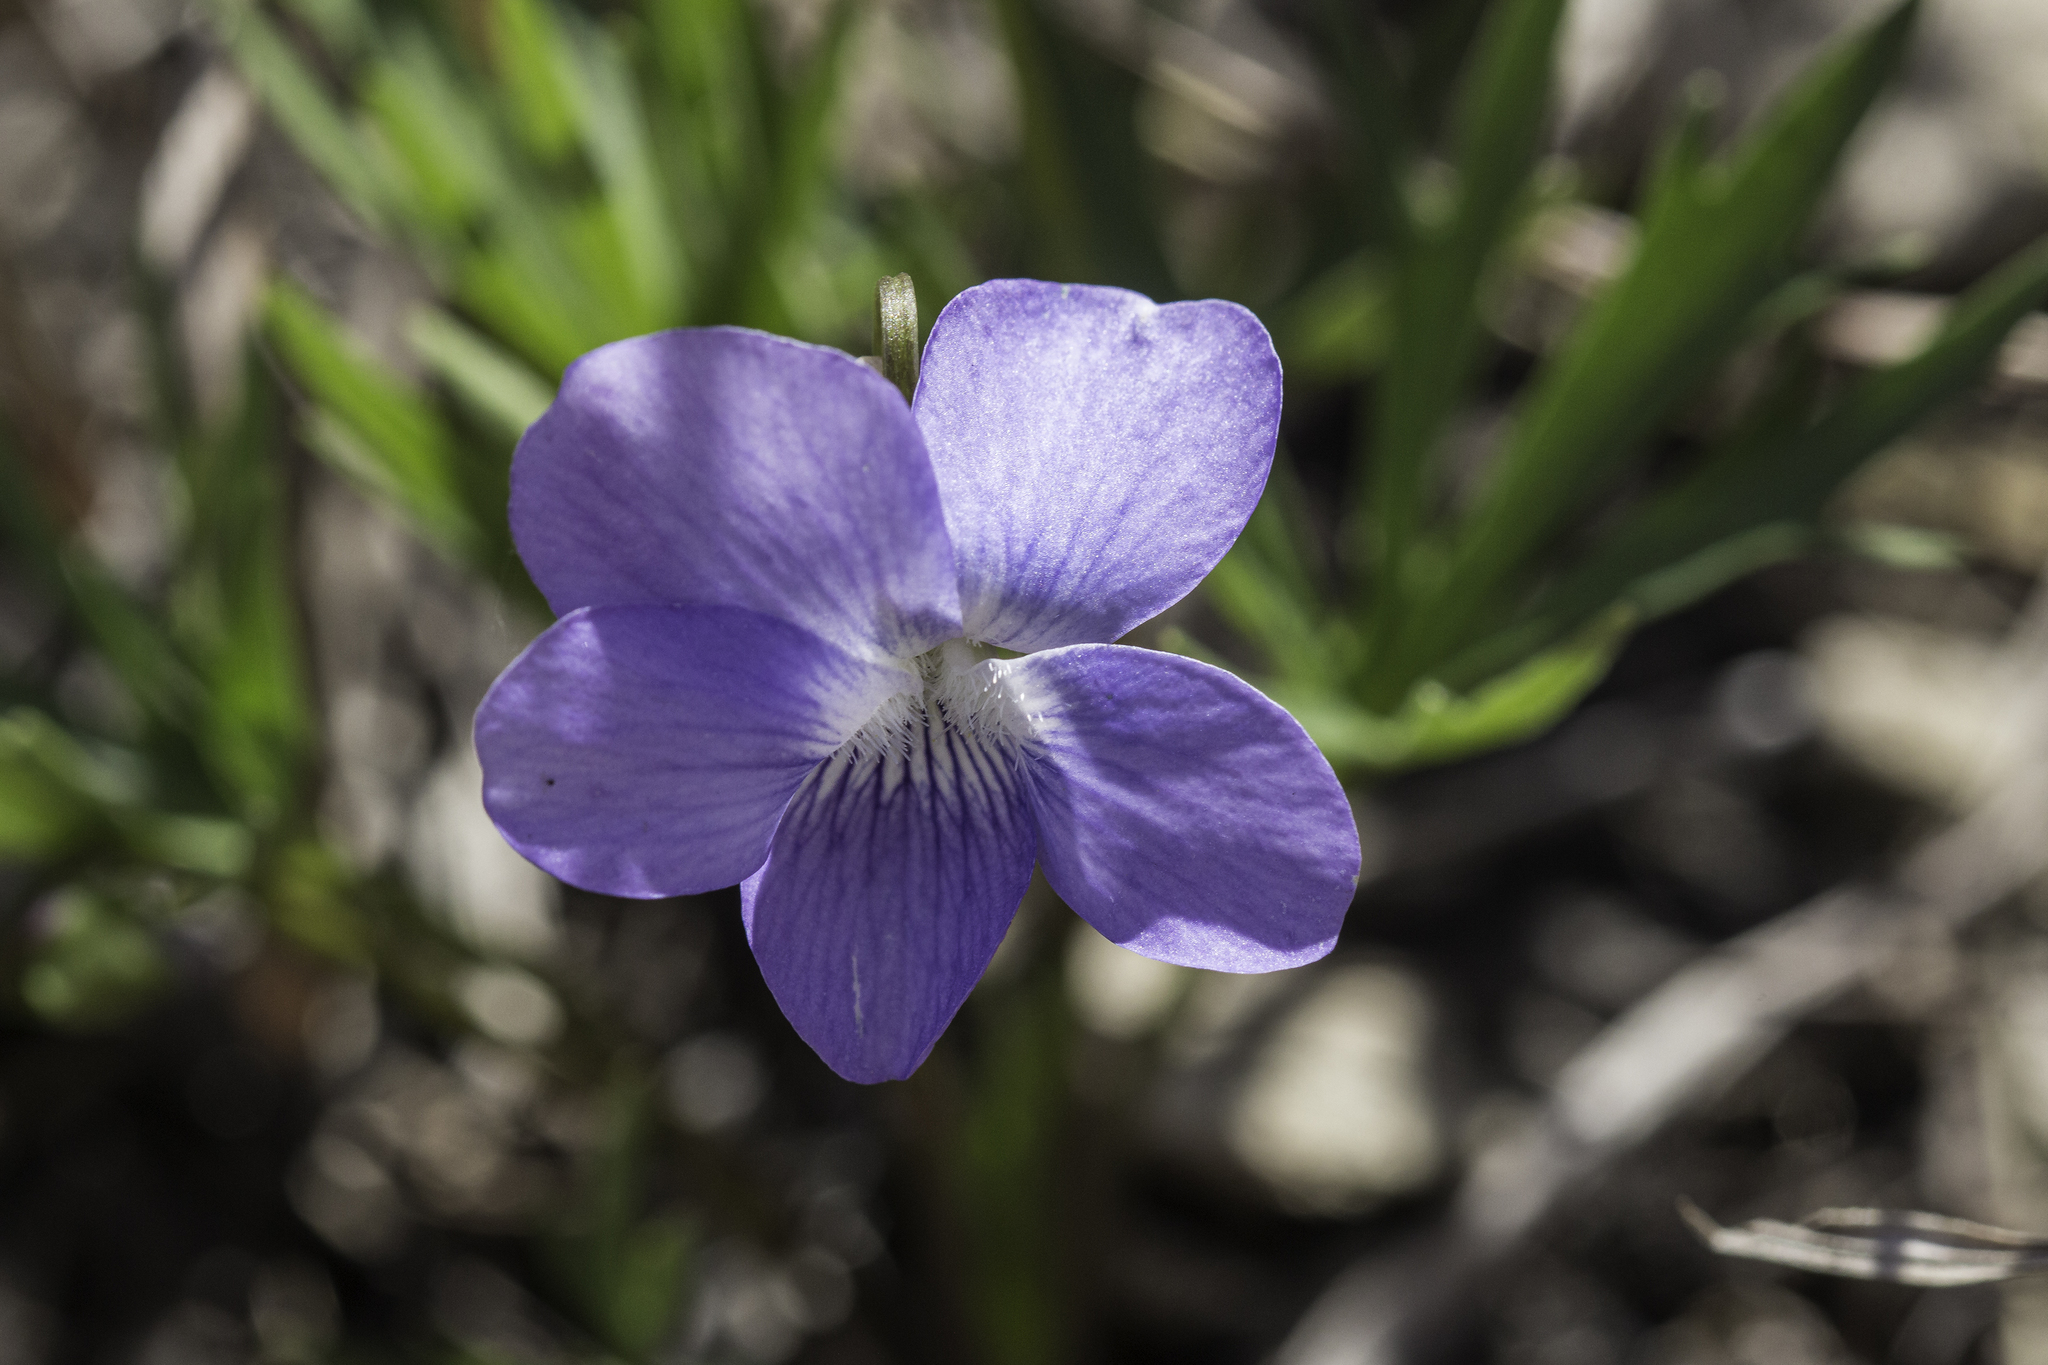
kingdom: Plantae
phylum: Tracheophyta
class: Magnoliopsida
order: Malpighiales
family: Violaceae
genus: Viola
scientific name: Viola pedatifida
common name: Prairie violet
